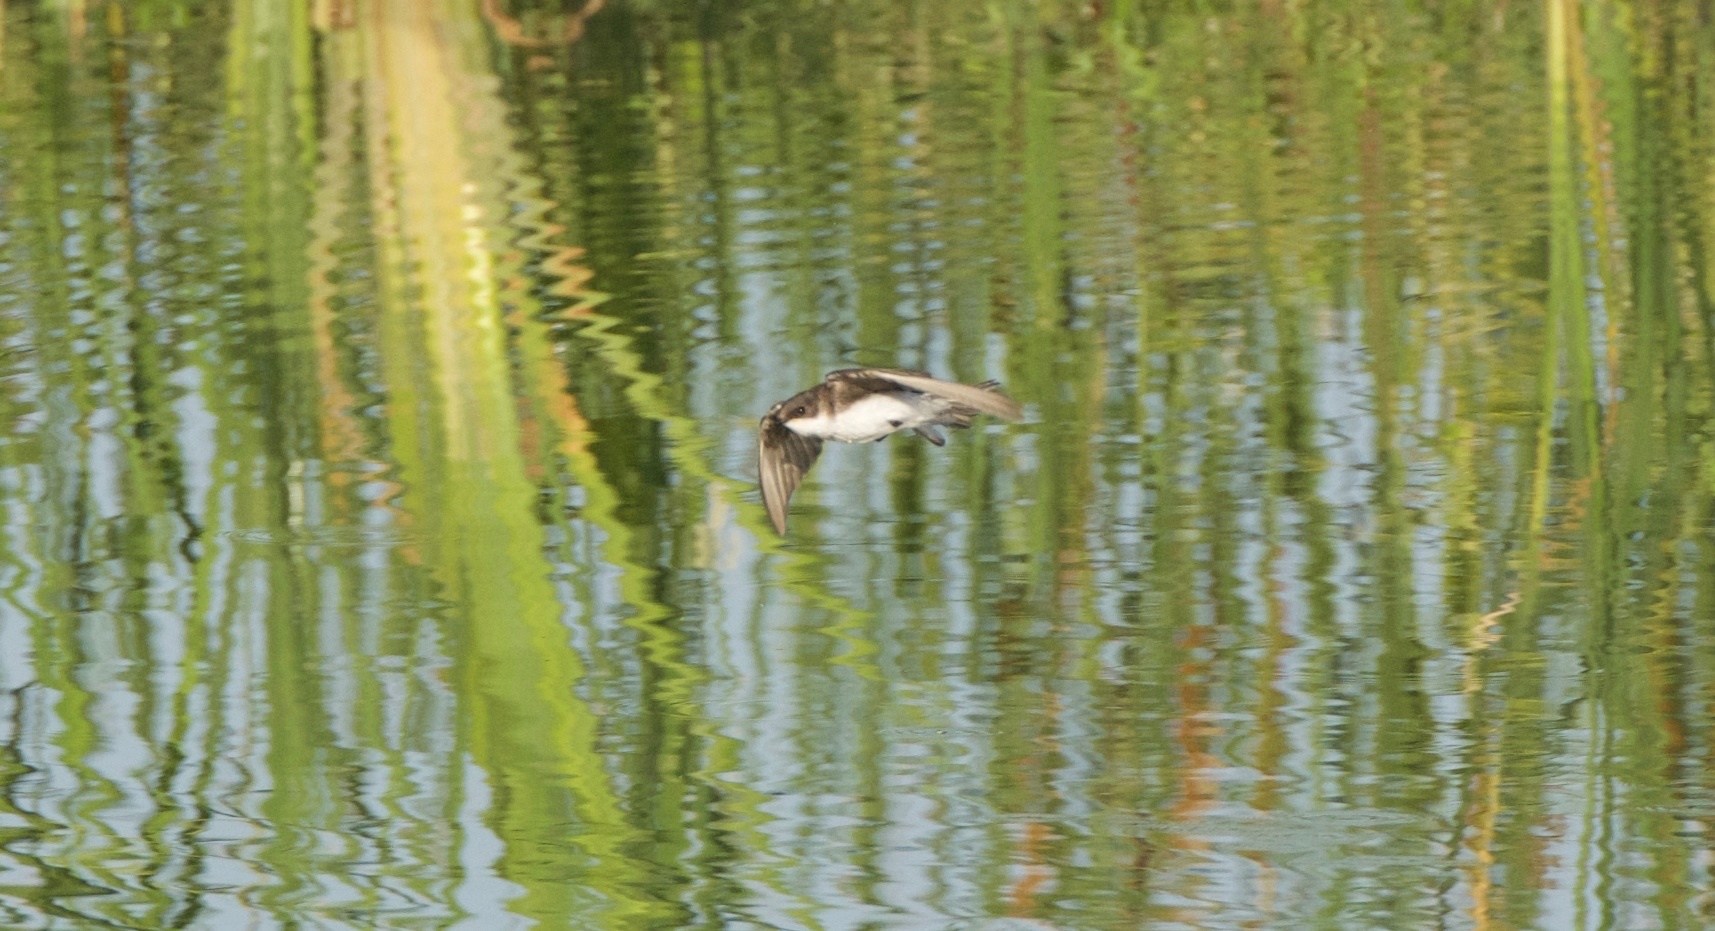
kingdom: Animalia
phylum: Chordata
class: Aves
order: Passeriformes
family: Hirundinidae
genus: Stelgidopteryx
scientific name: Stelgidopteryx serripennis
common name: Northern rough-winged swallow
